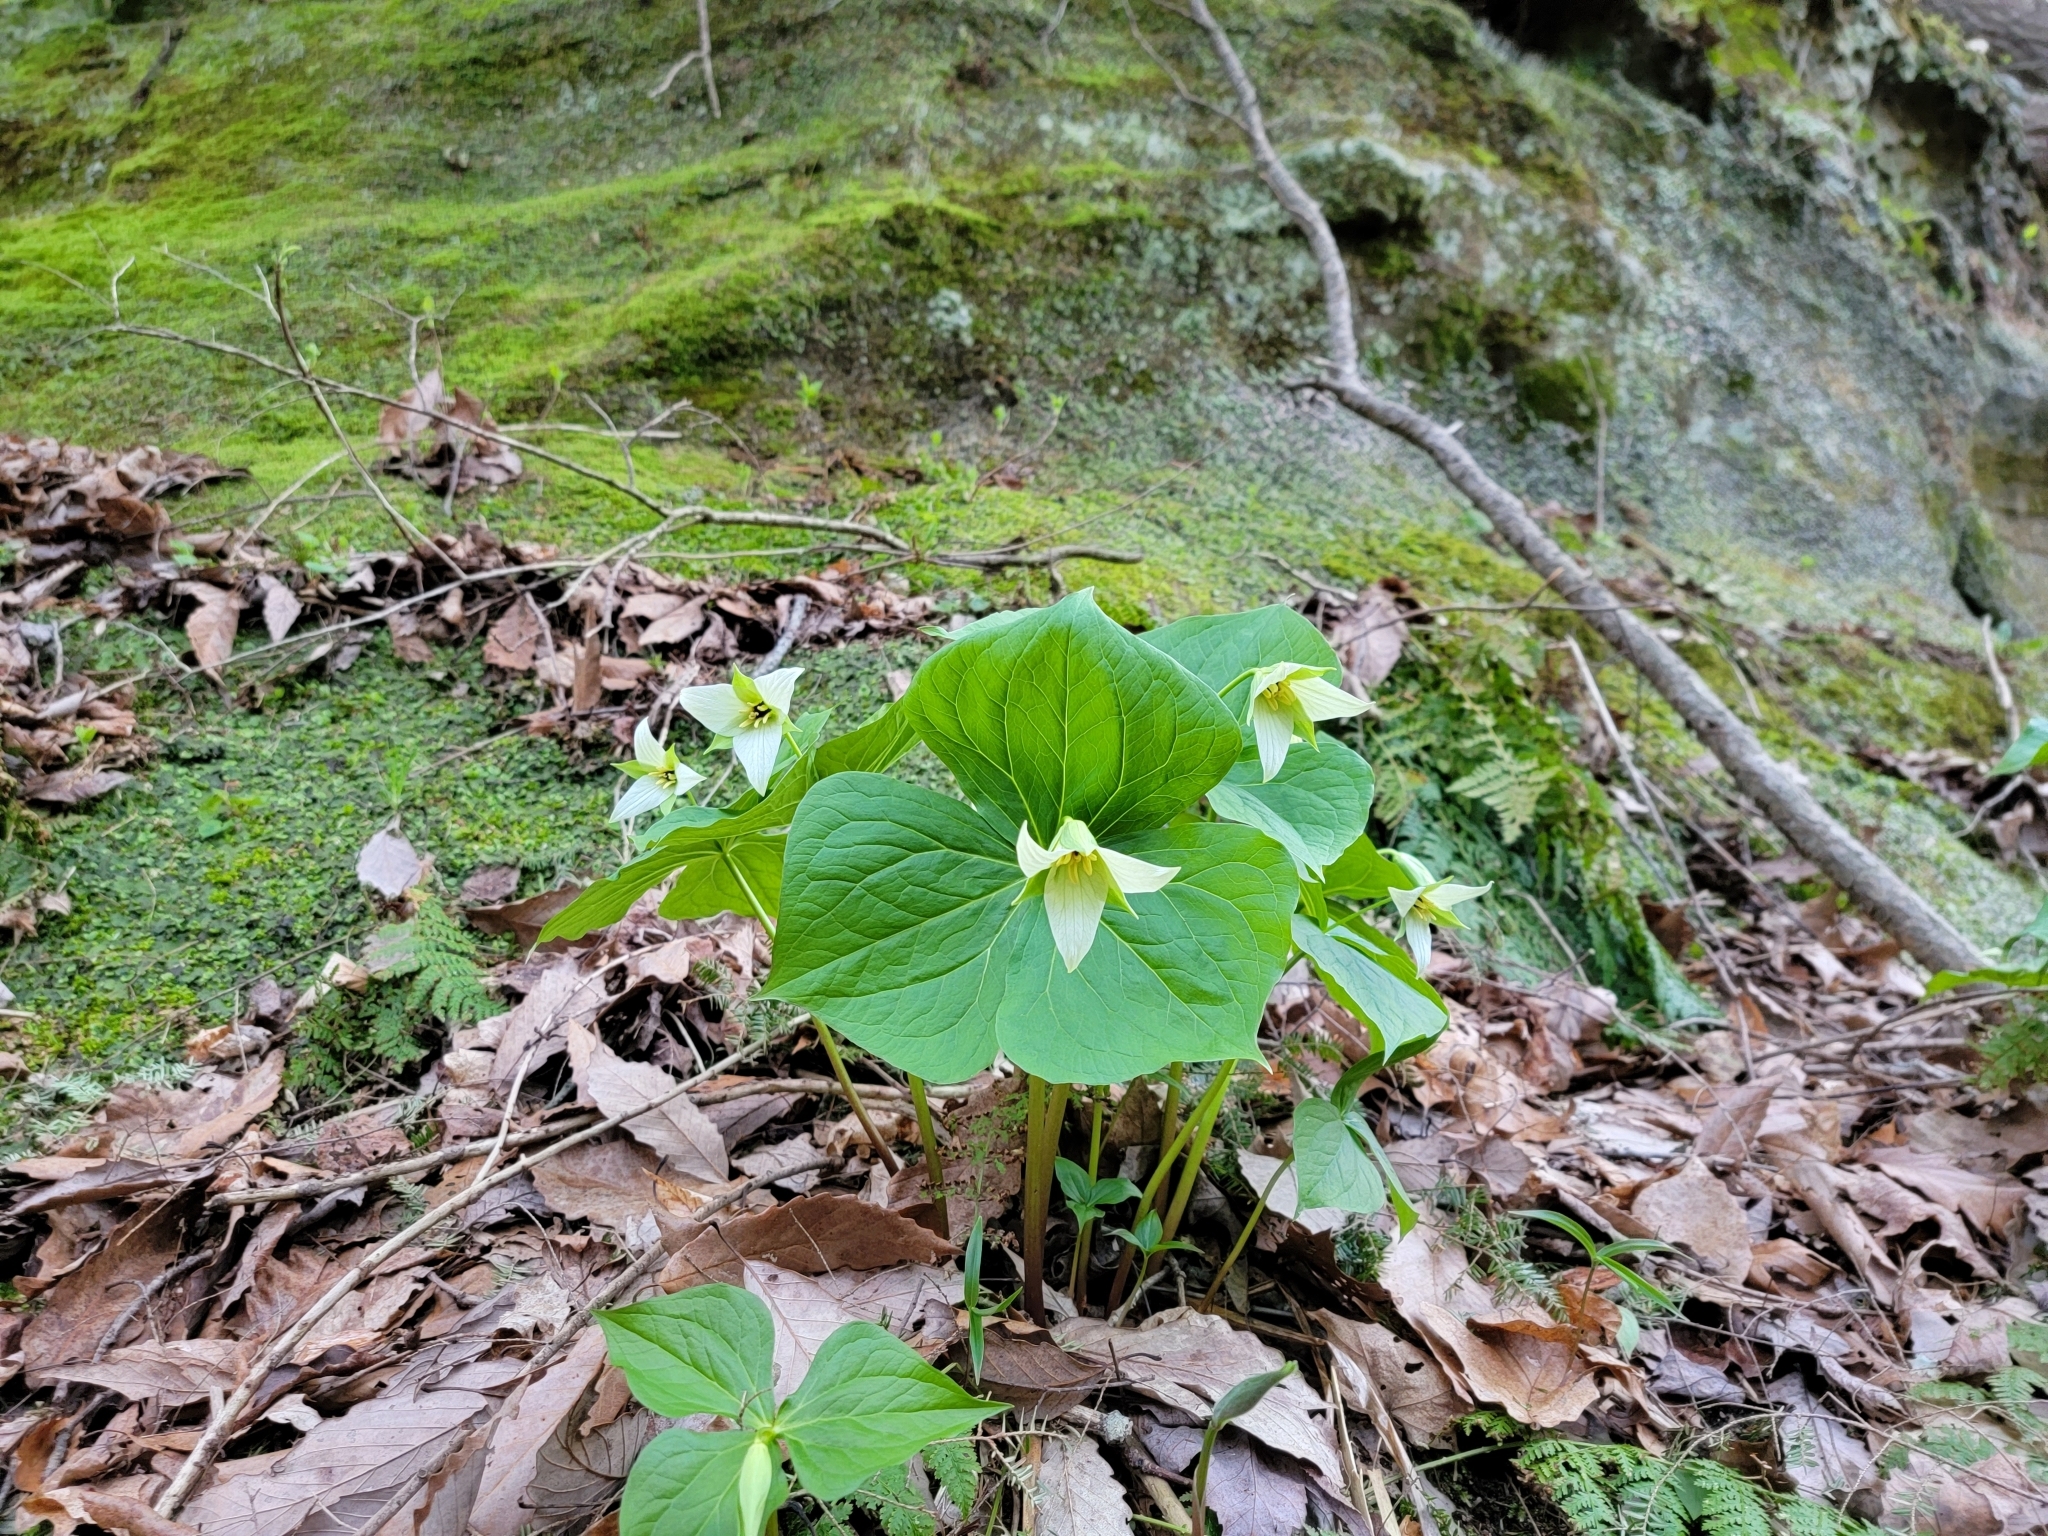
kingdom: Plantae
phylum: Tracheophyta
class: Liliopsida
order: Liliales
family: Melanthiaceae
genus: Trillium
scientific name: Trillium erectum
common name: Purple trillium
